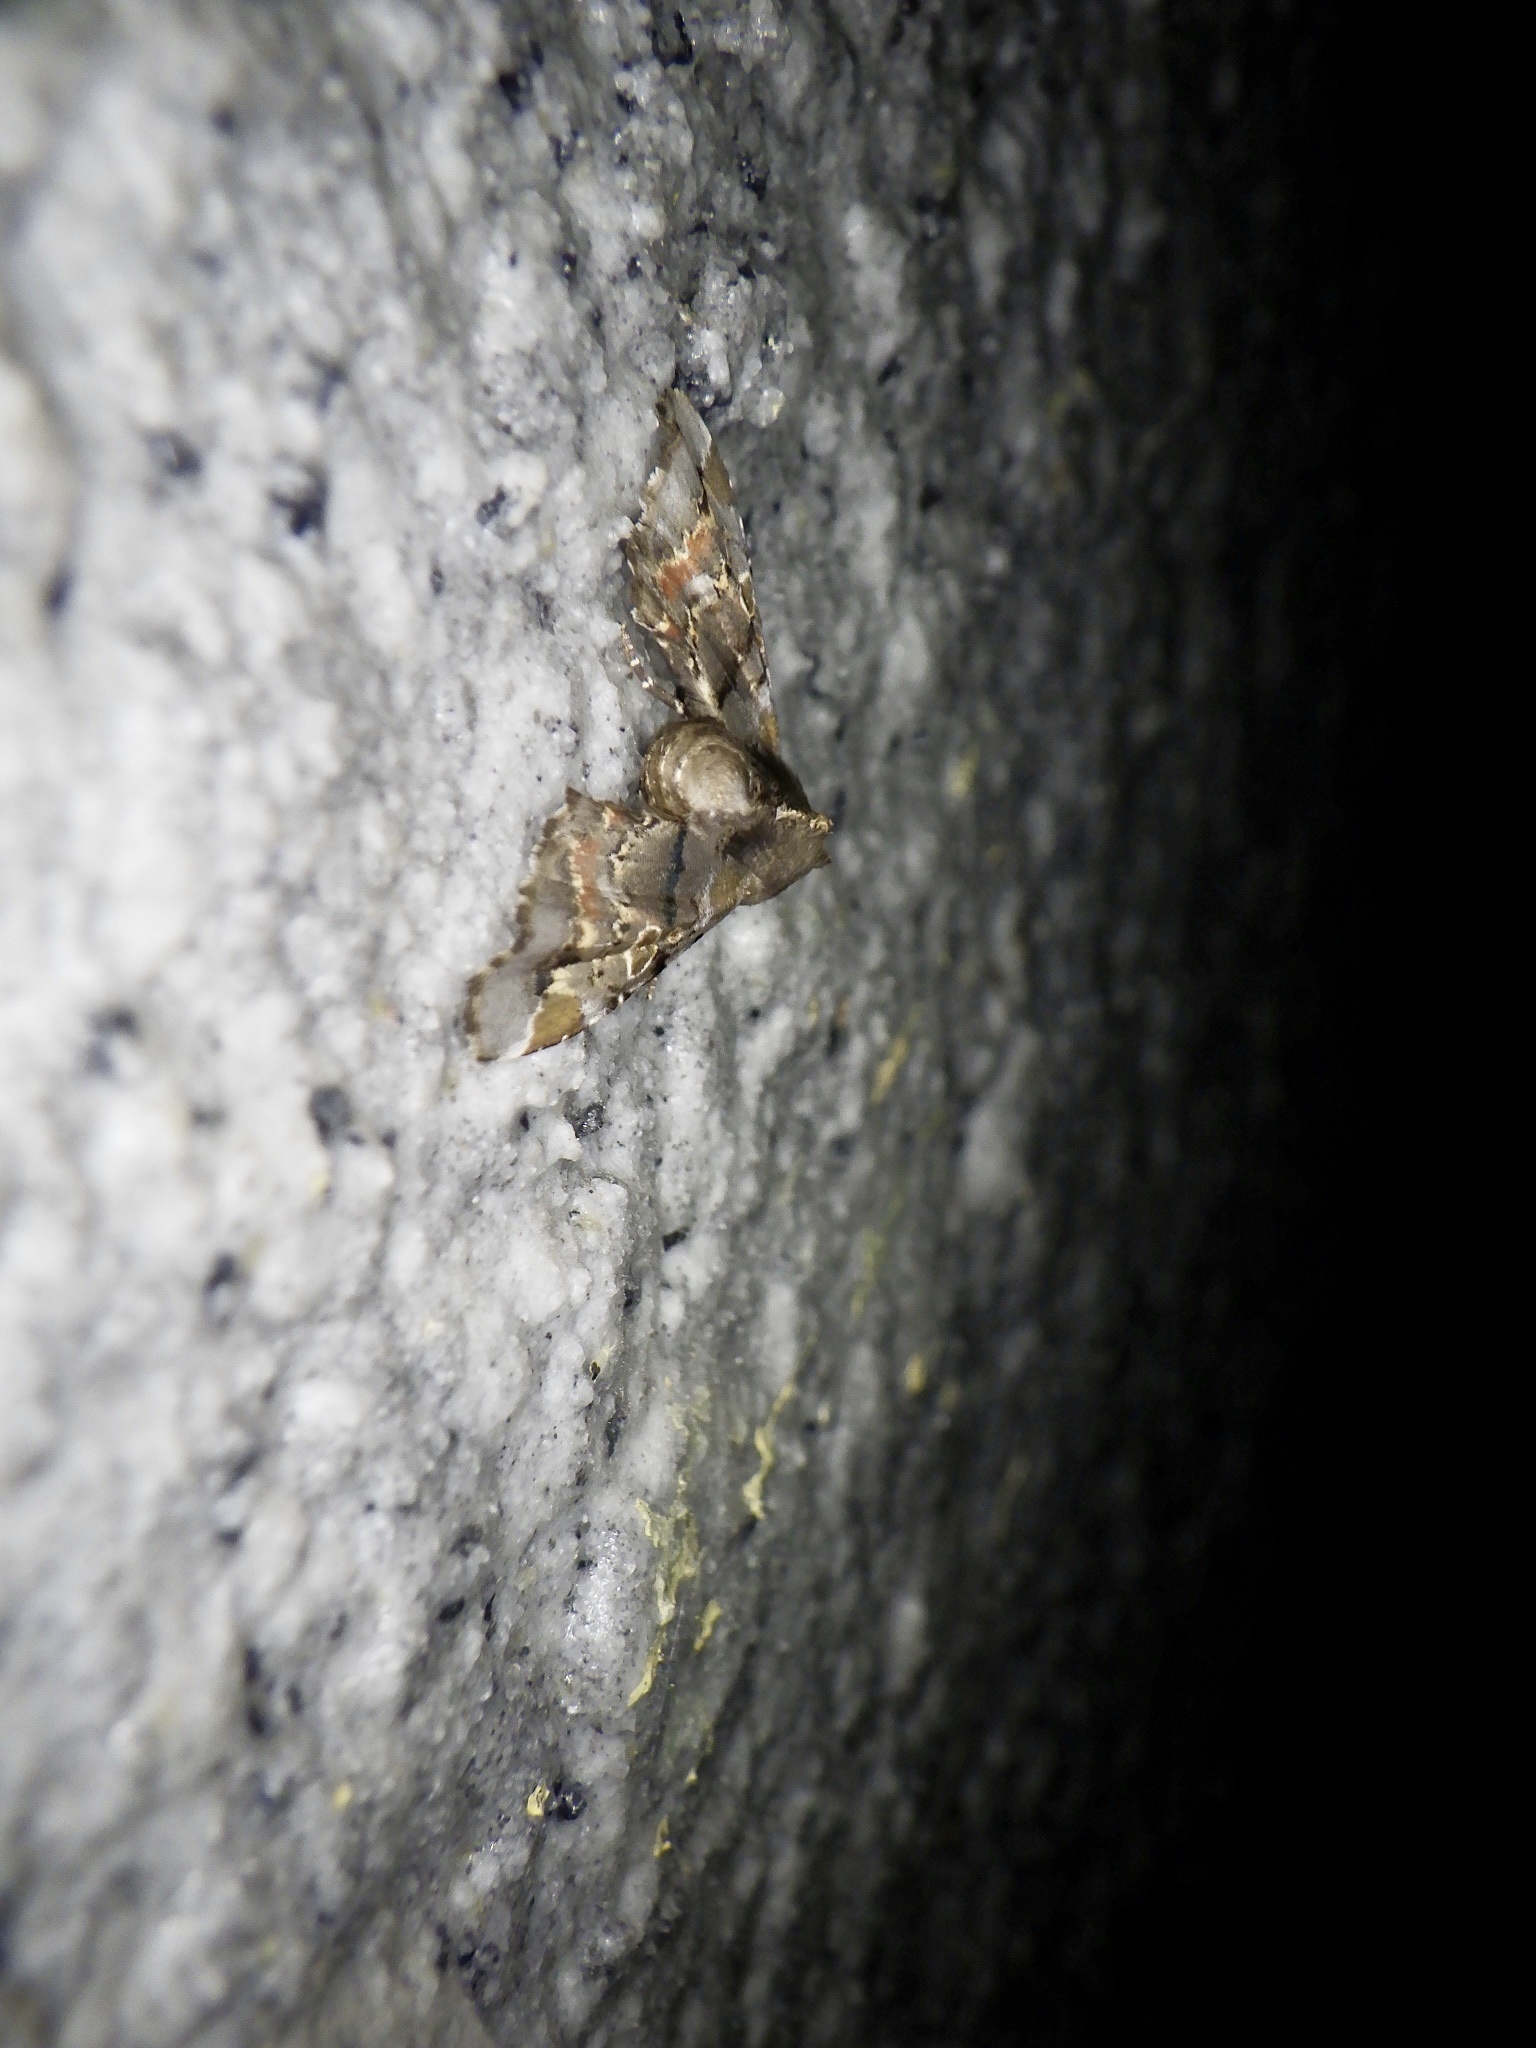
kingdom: Animalia
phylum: Arthropoda
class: Insecta
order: Lepidoptera
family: Euteliidae
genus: Atacira
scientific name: Atacira grabczewskii
